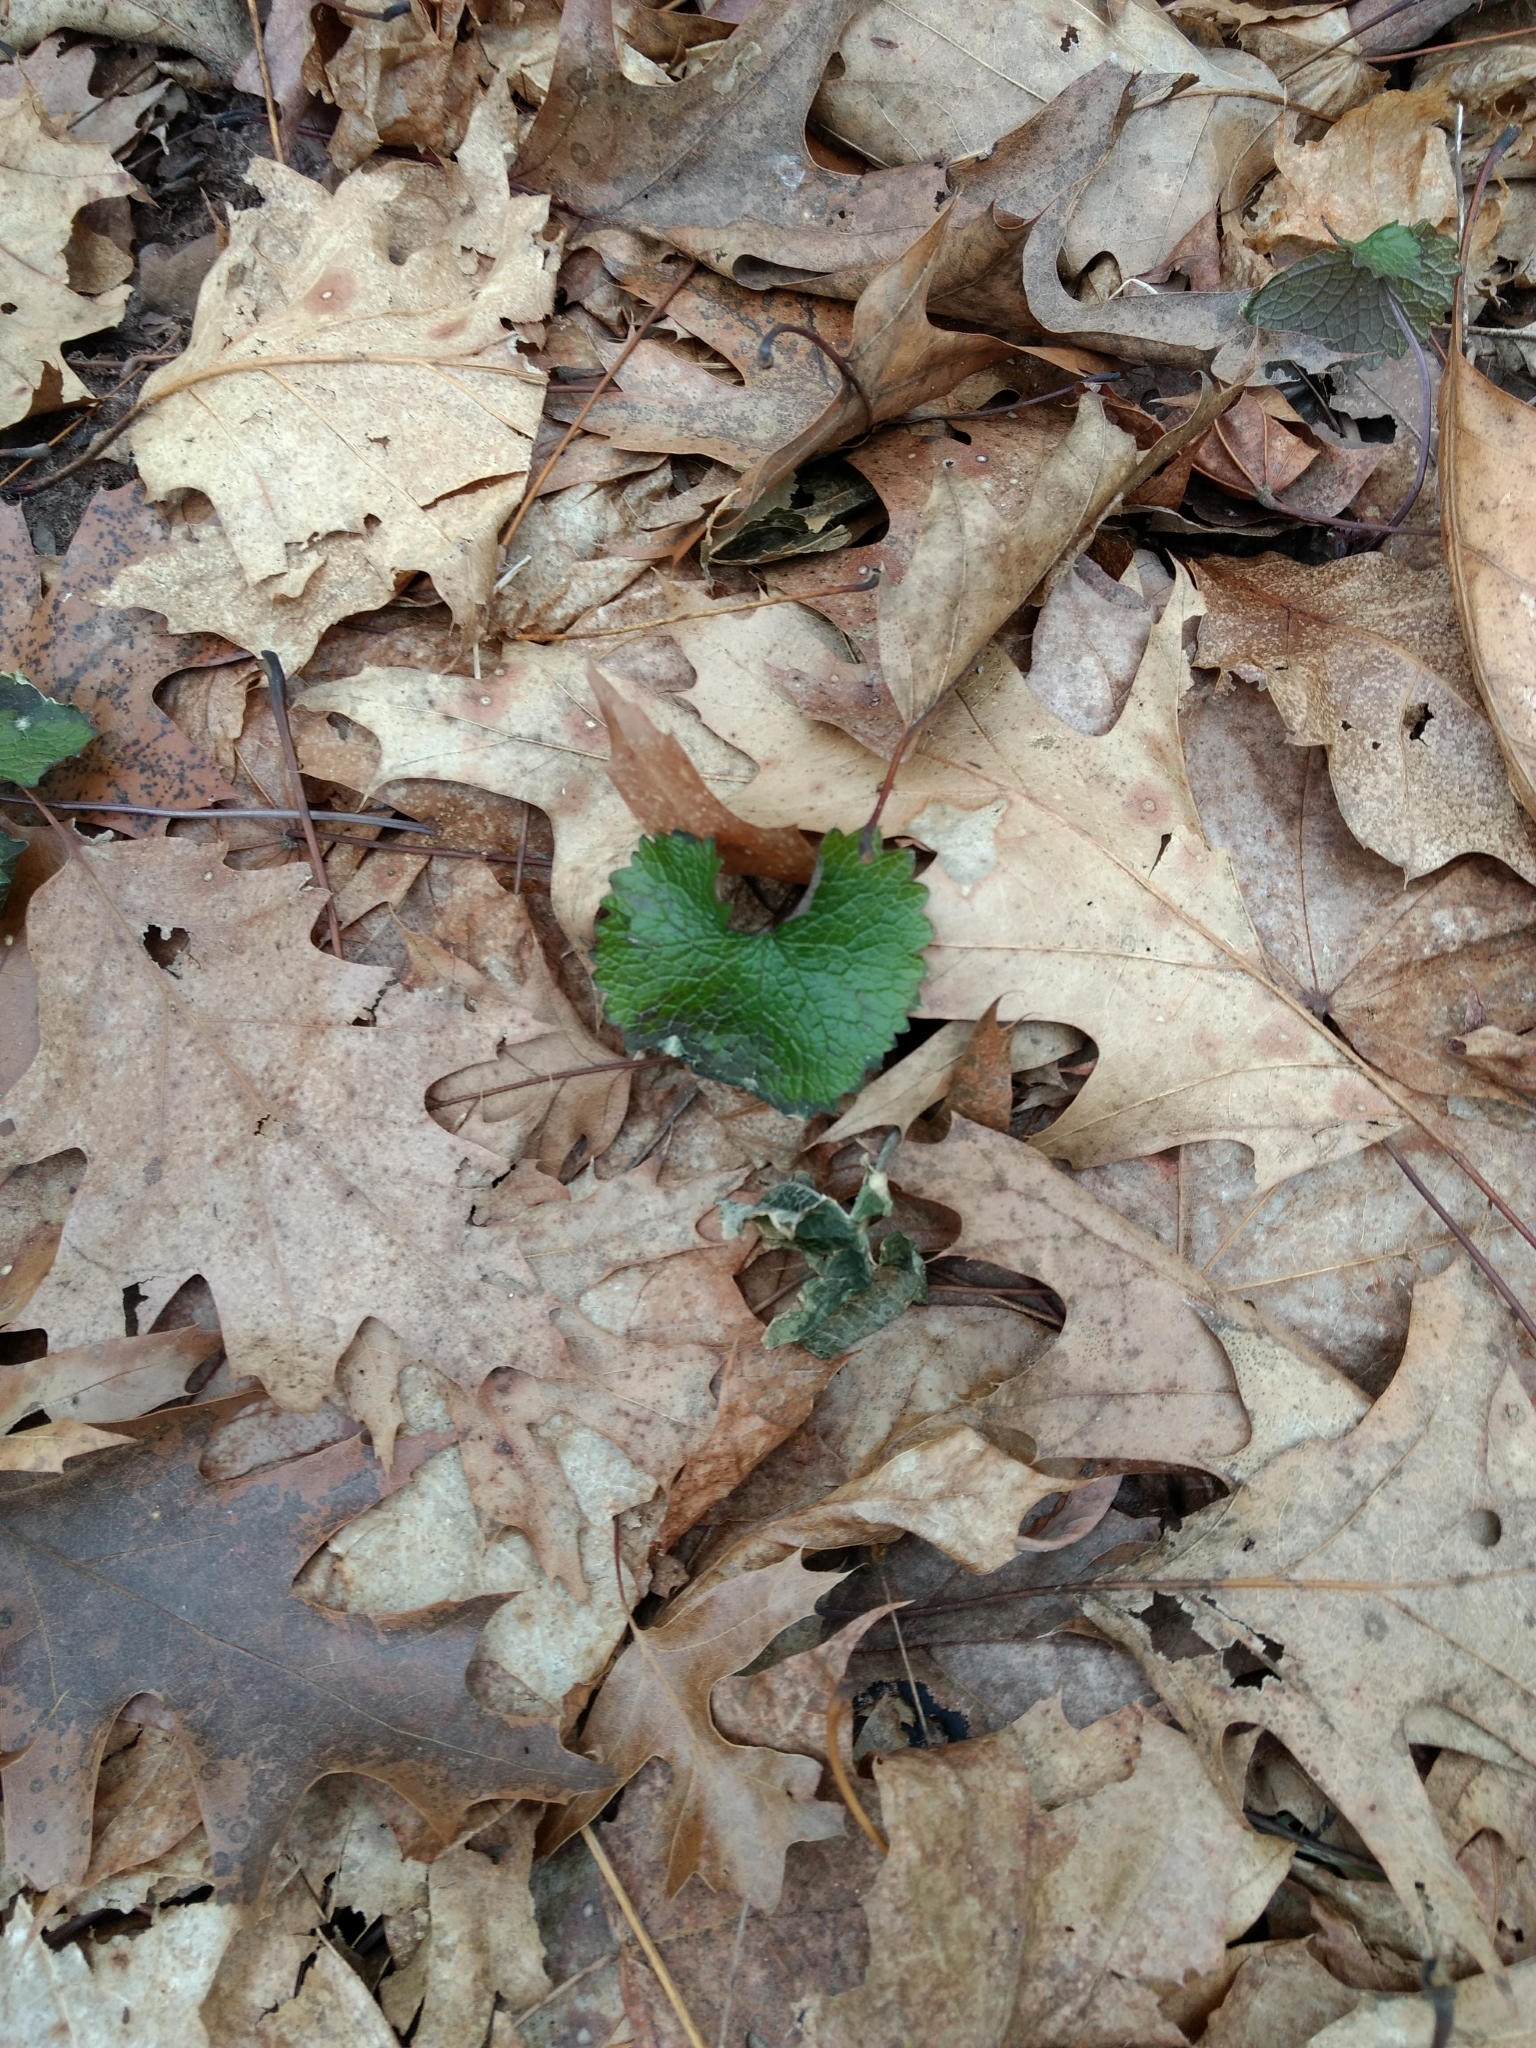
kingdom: Plantae
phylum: Tracheophyta
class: Magnoliopsida
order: Brassicales
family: Brassicaceae
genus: Alliaria
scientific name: Alliaria petiolata
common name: Garlic mustard
